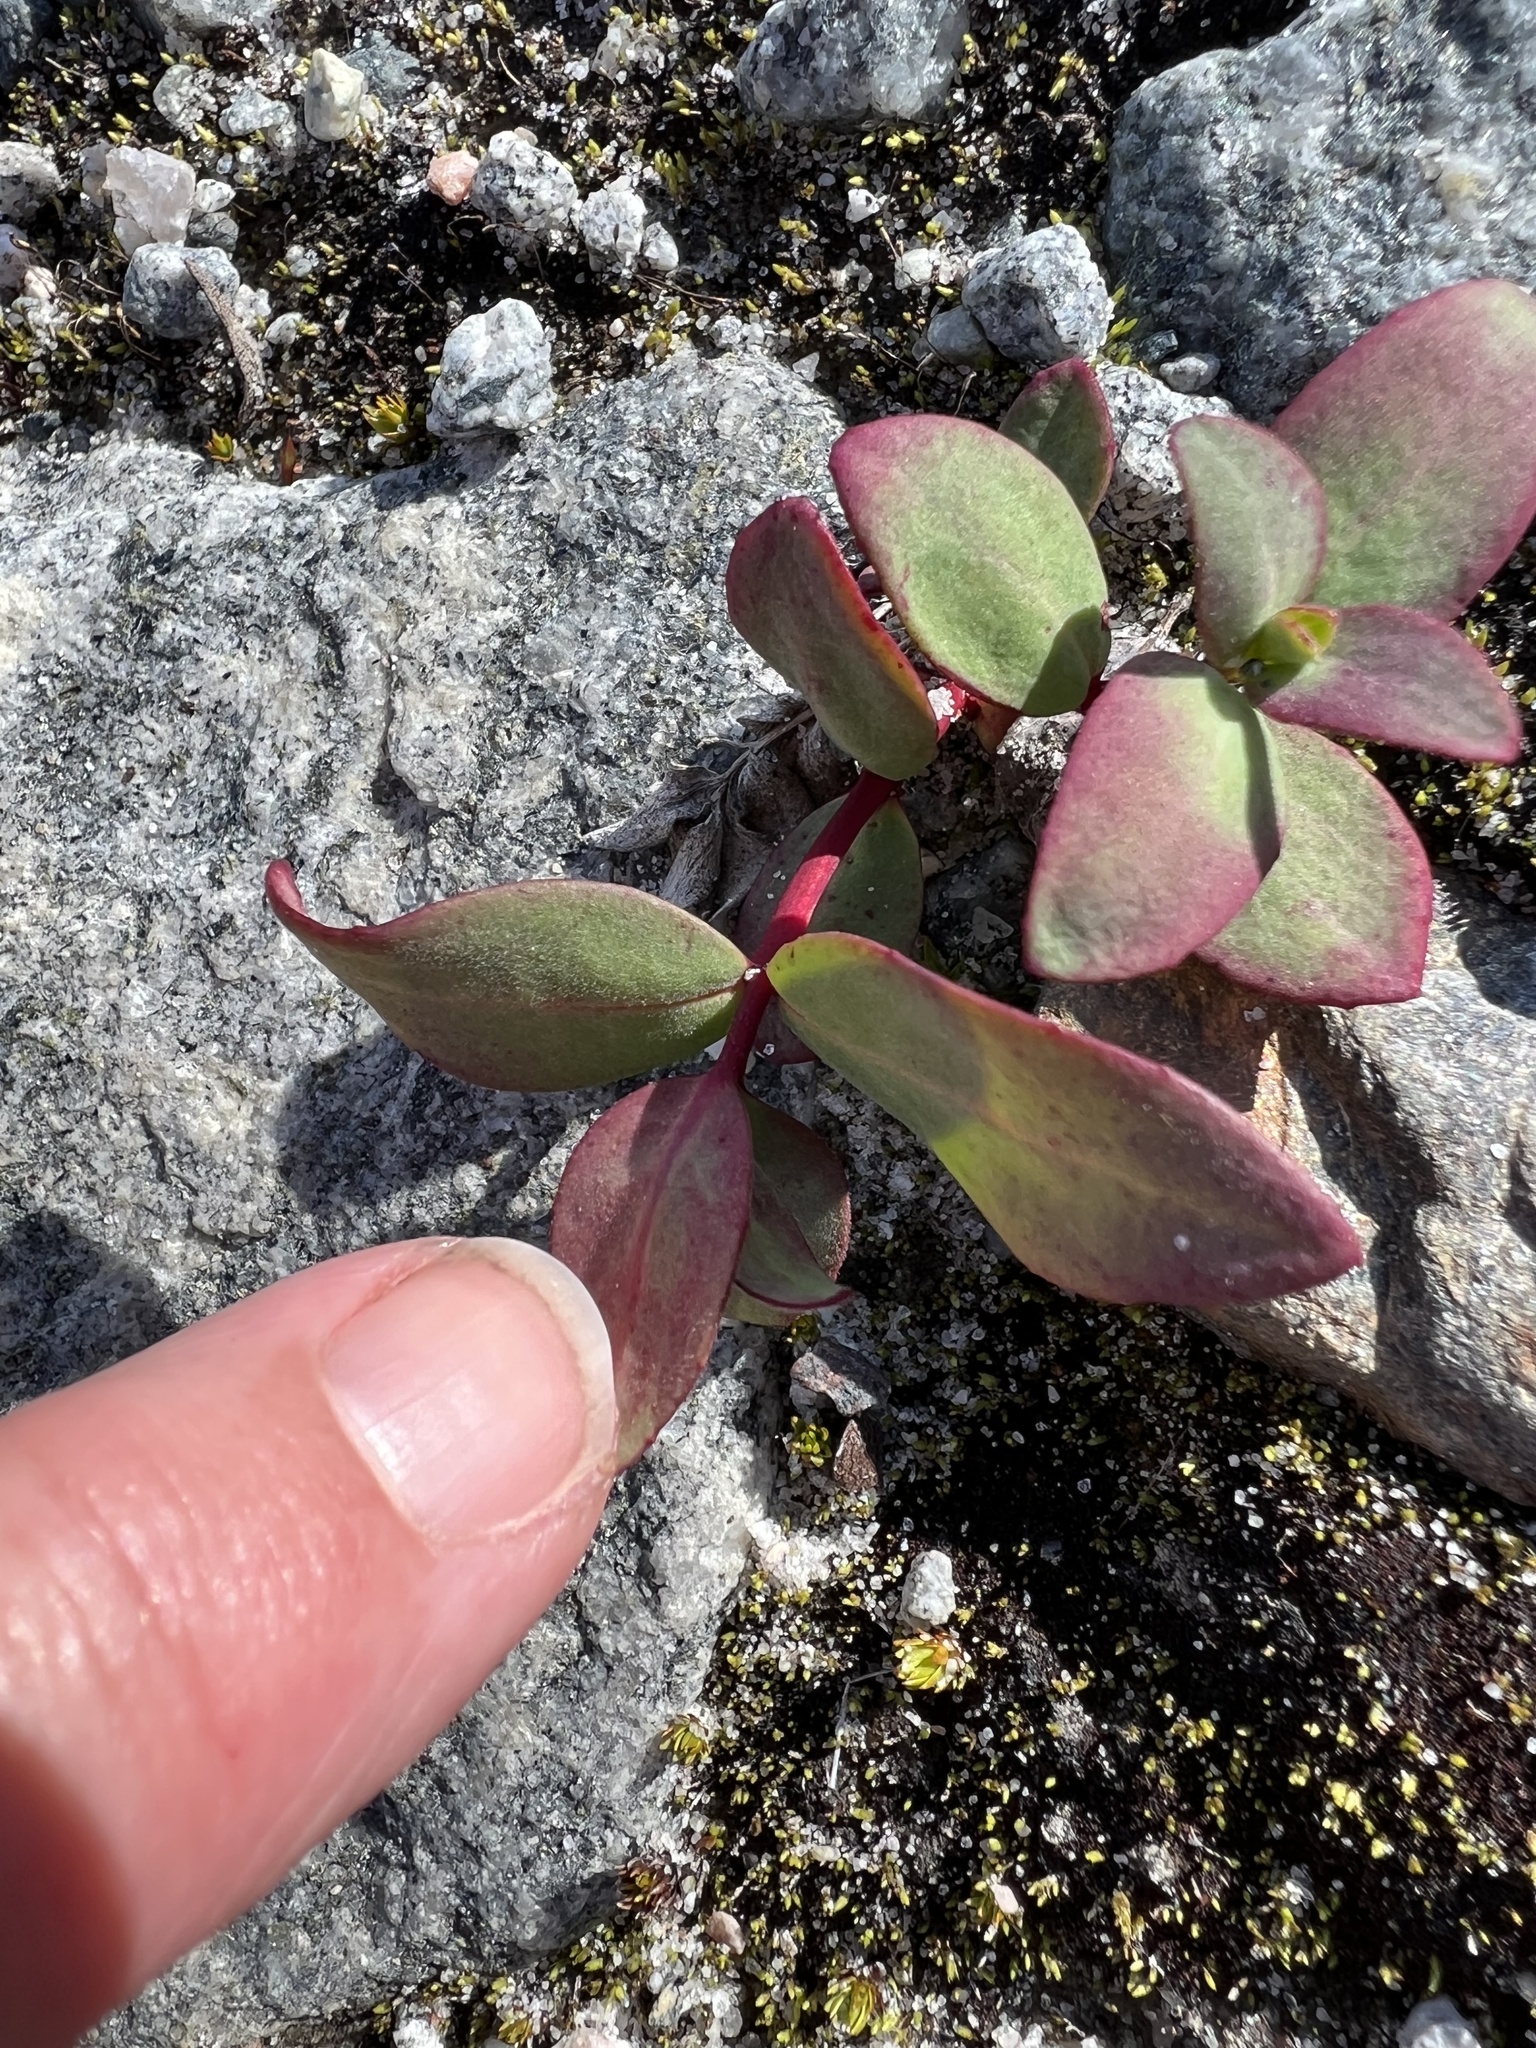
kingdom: Plantae
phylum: Tracheophyta
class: Magnoliopsida
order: Myrtales
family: Onagraceae
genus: Chamaenerion
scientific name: Chamaenerion latifolium
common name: Dwarf fireweed
